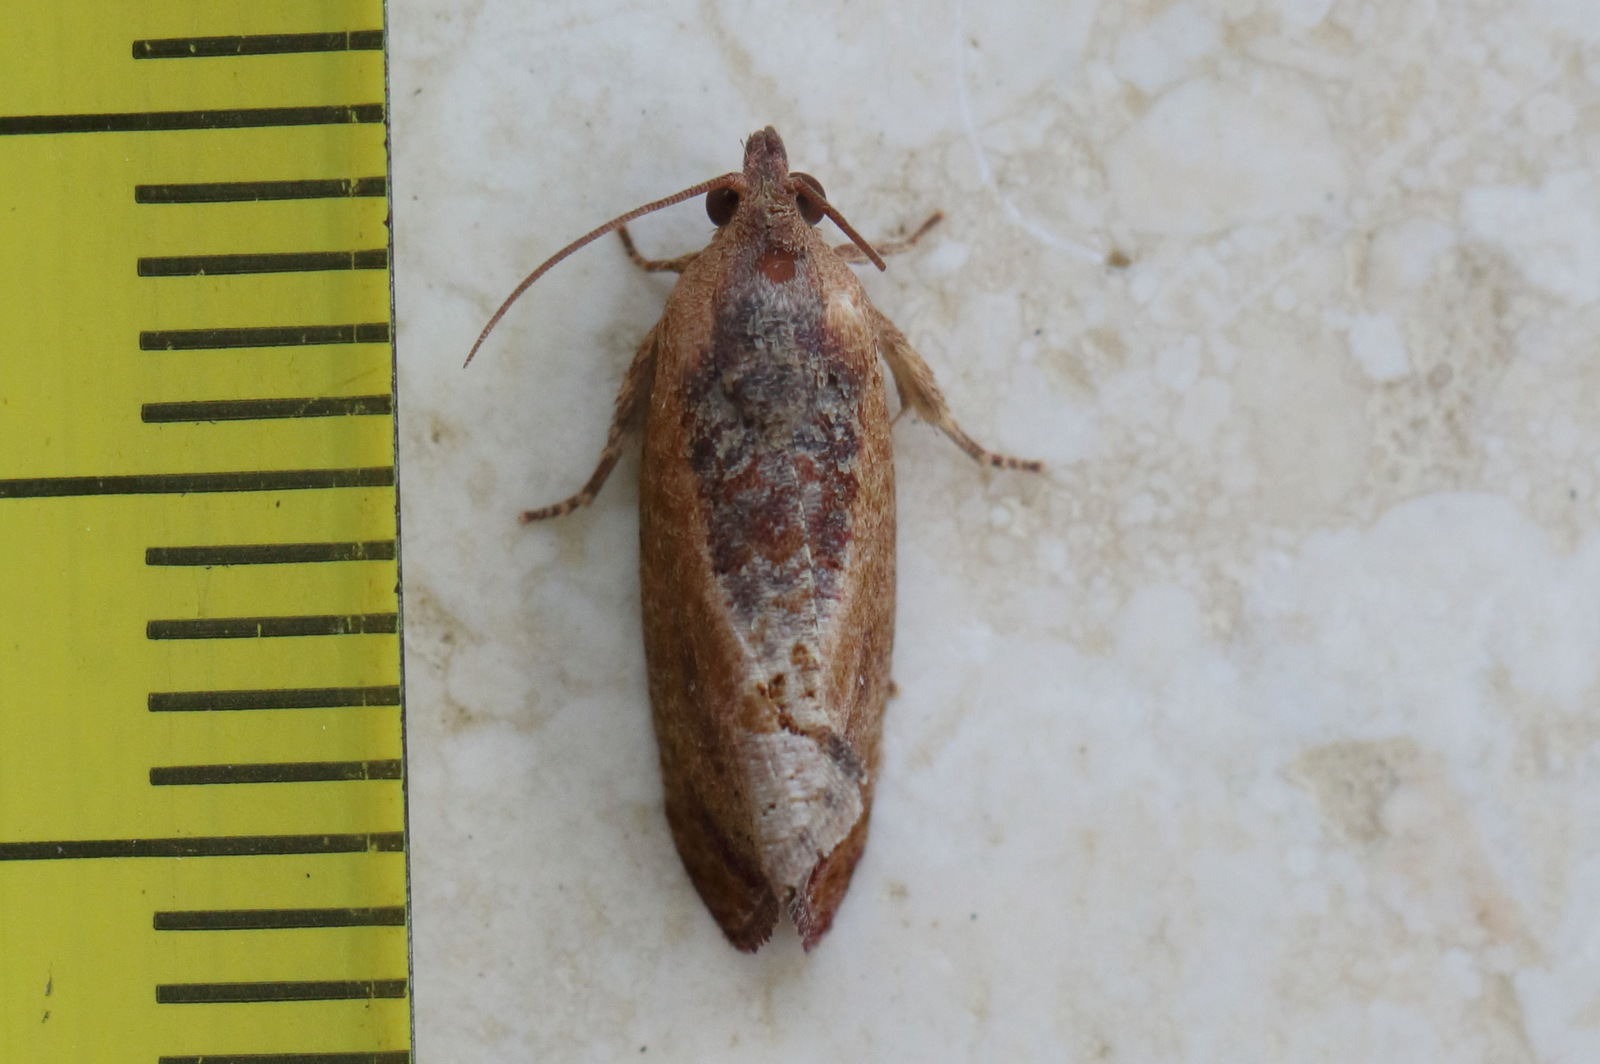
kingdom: Animalia
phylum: Arthropoda
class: Insecta
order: Lepidoptera
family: Tortricidae
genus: Cryptophlebia
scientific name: Cryptophlebia ombrodelta
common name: Litchi fruit moth
